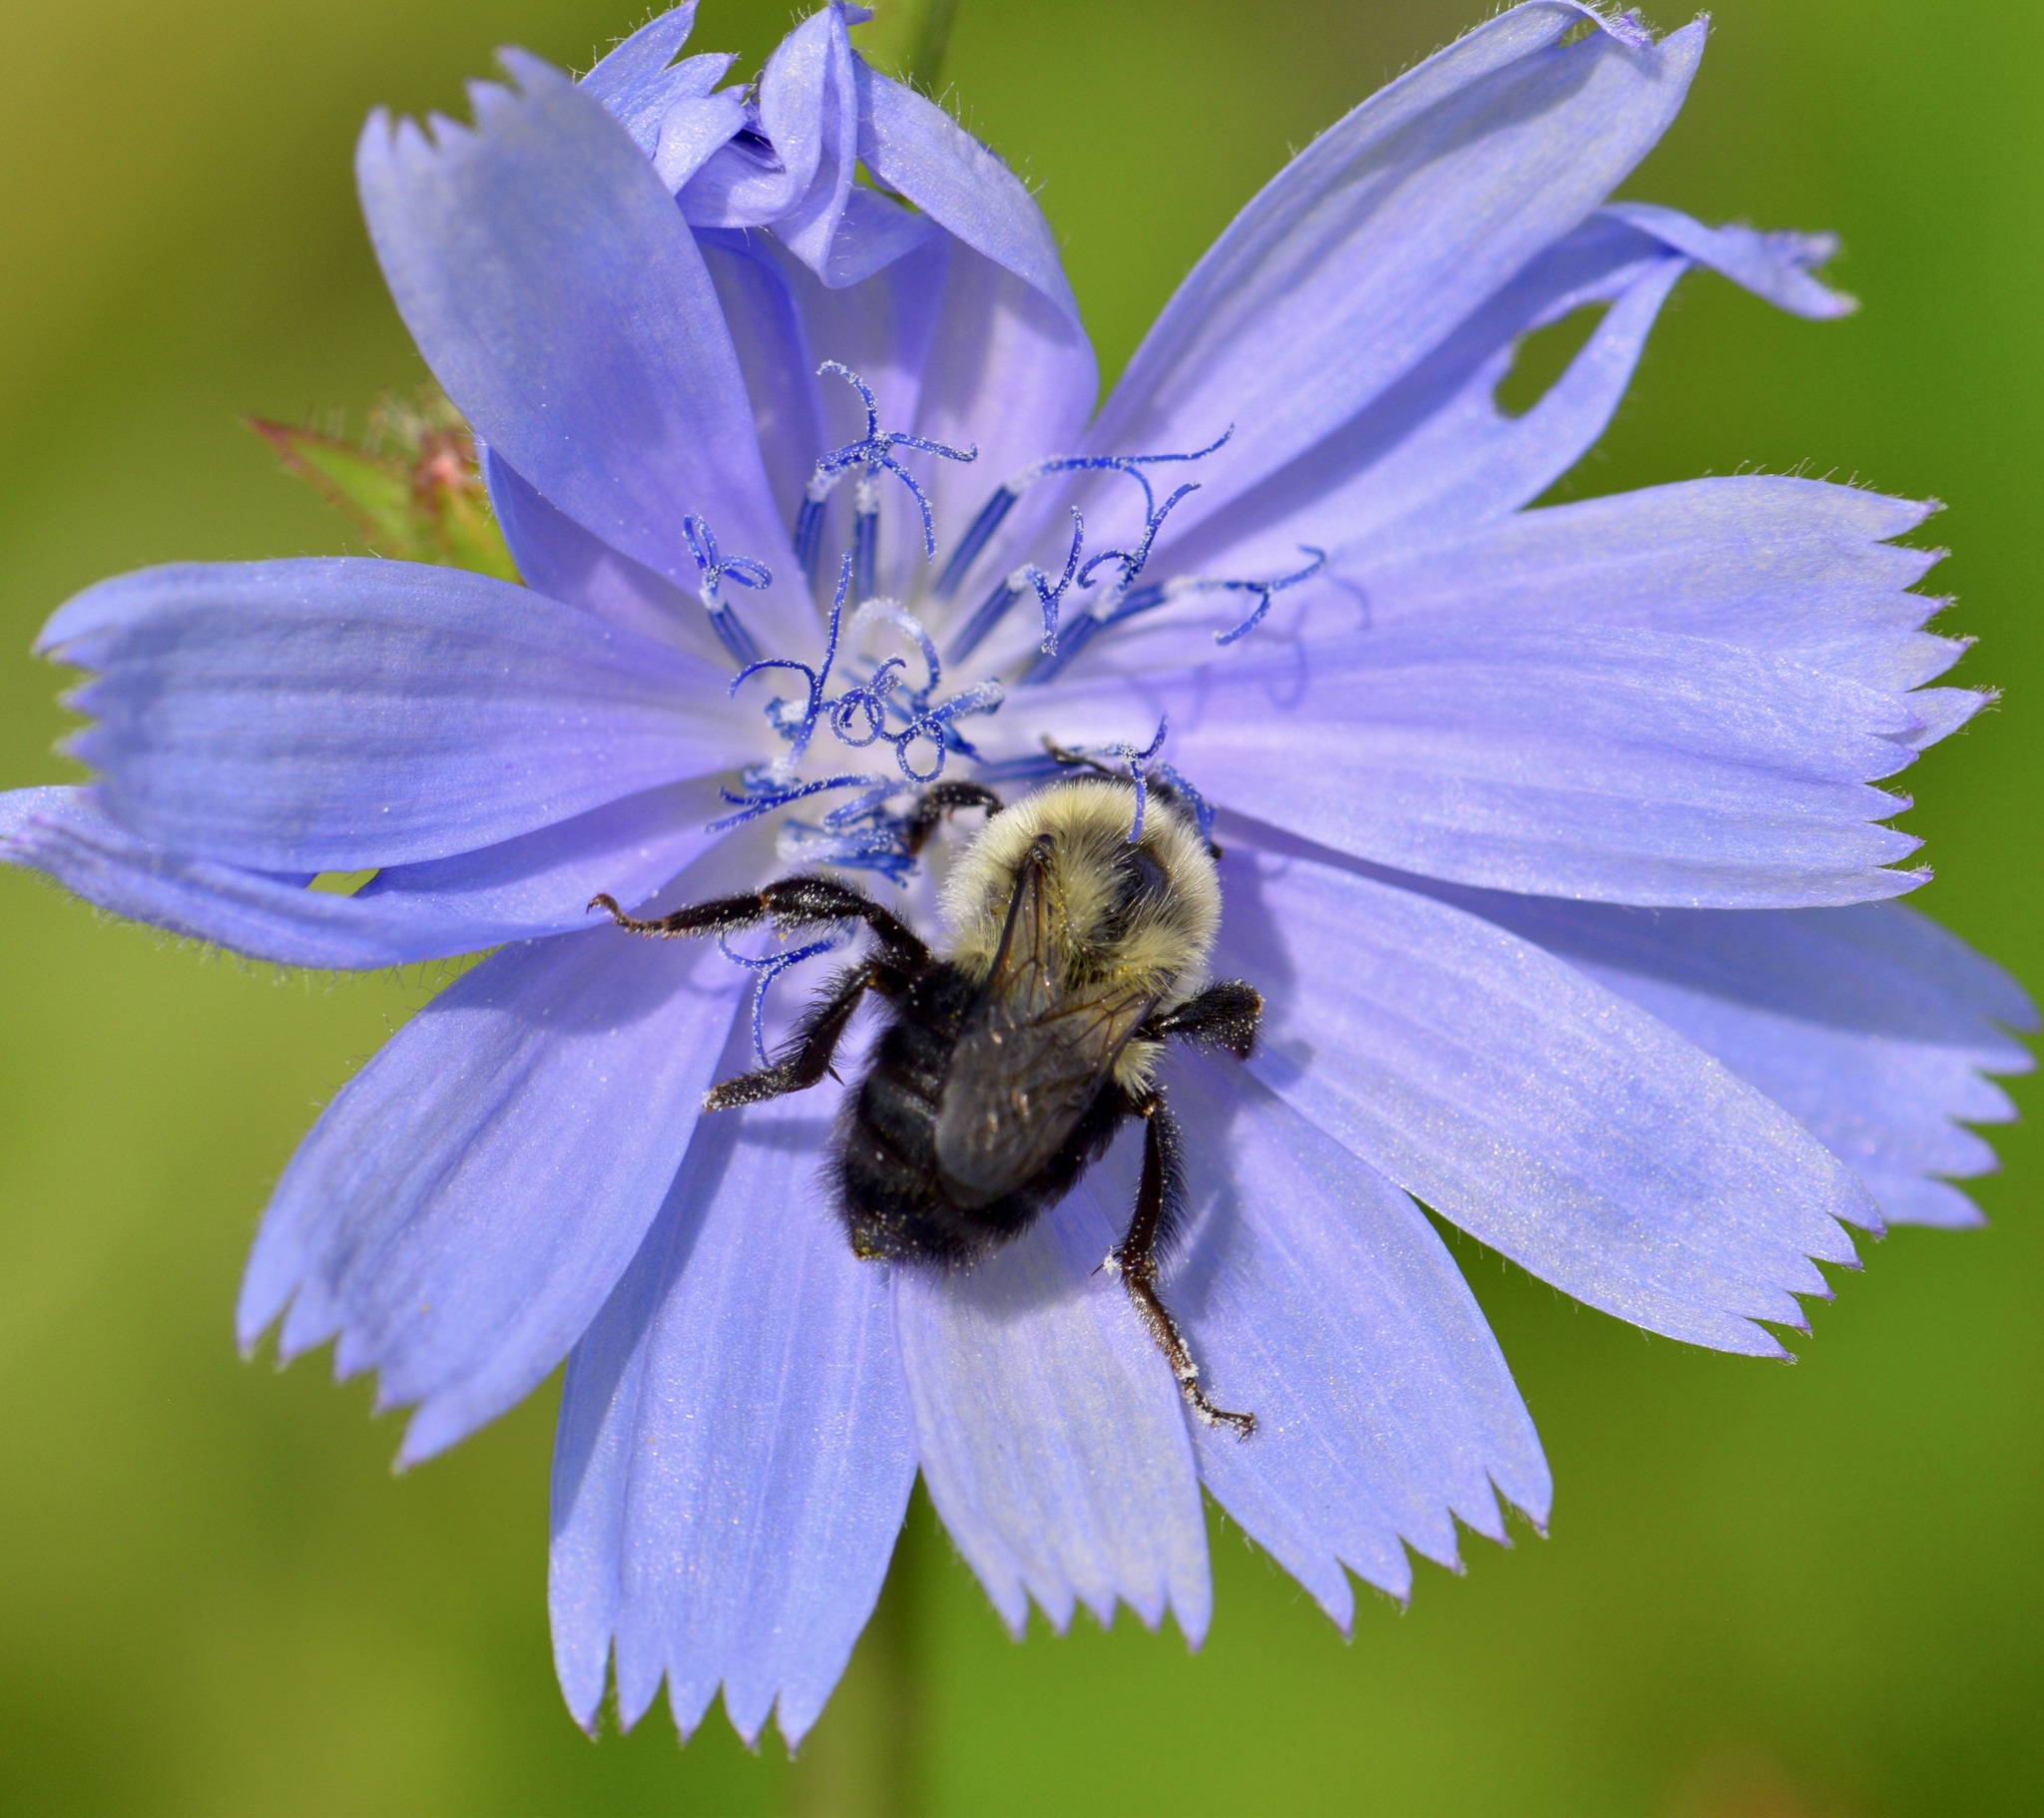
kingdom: Animalia
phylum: Arthropoda
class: Insecta
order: Hymenoptera
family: Apidae
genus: Bombus
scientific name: Bombus impatiens
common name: Common eastern bumble bee
